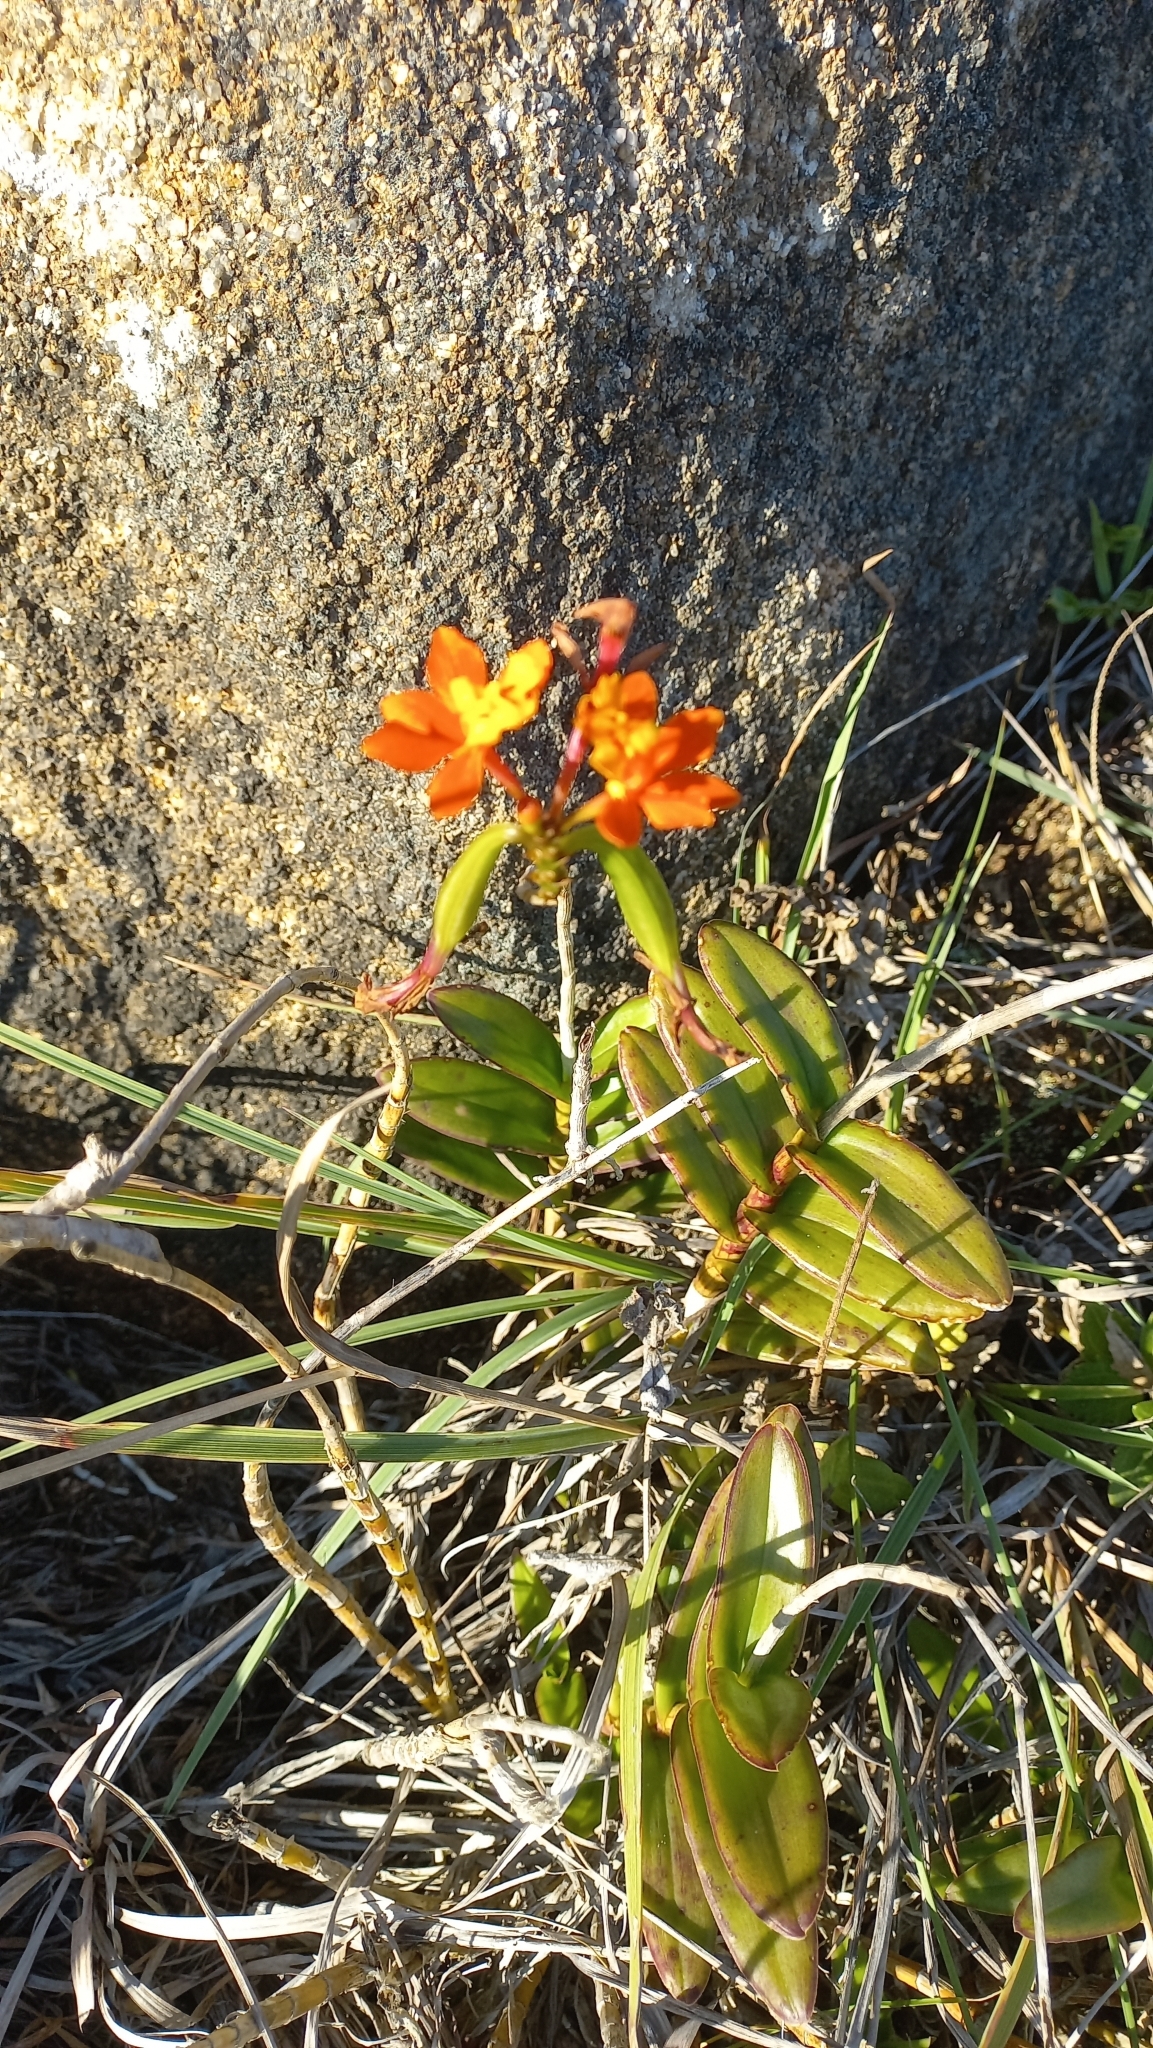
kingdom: Plantae
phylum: Tracheophyta
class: Liliopsida
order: Asparagales
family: Orchidaceae
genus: Epidendrum
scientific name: Epidendrum fulgens
